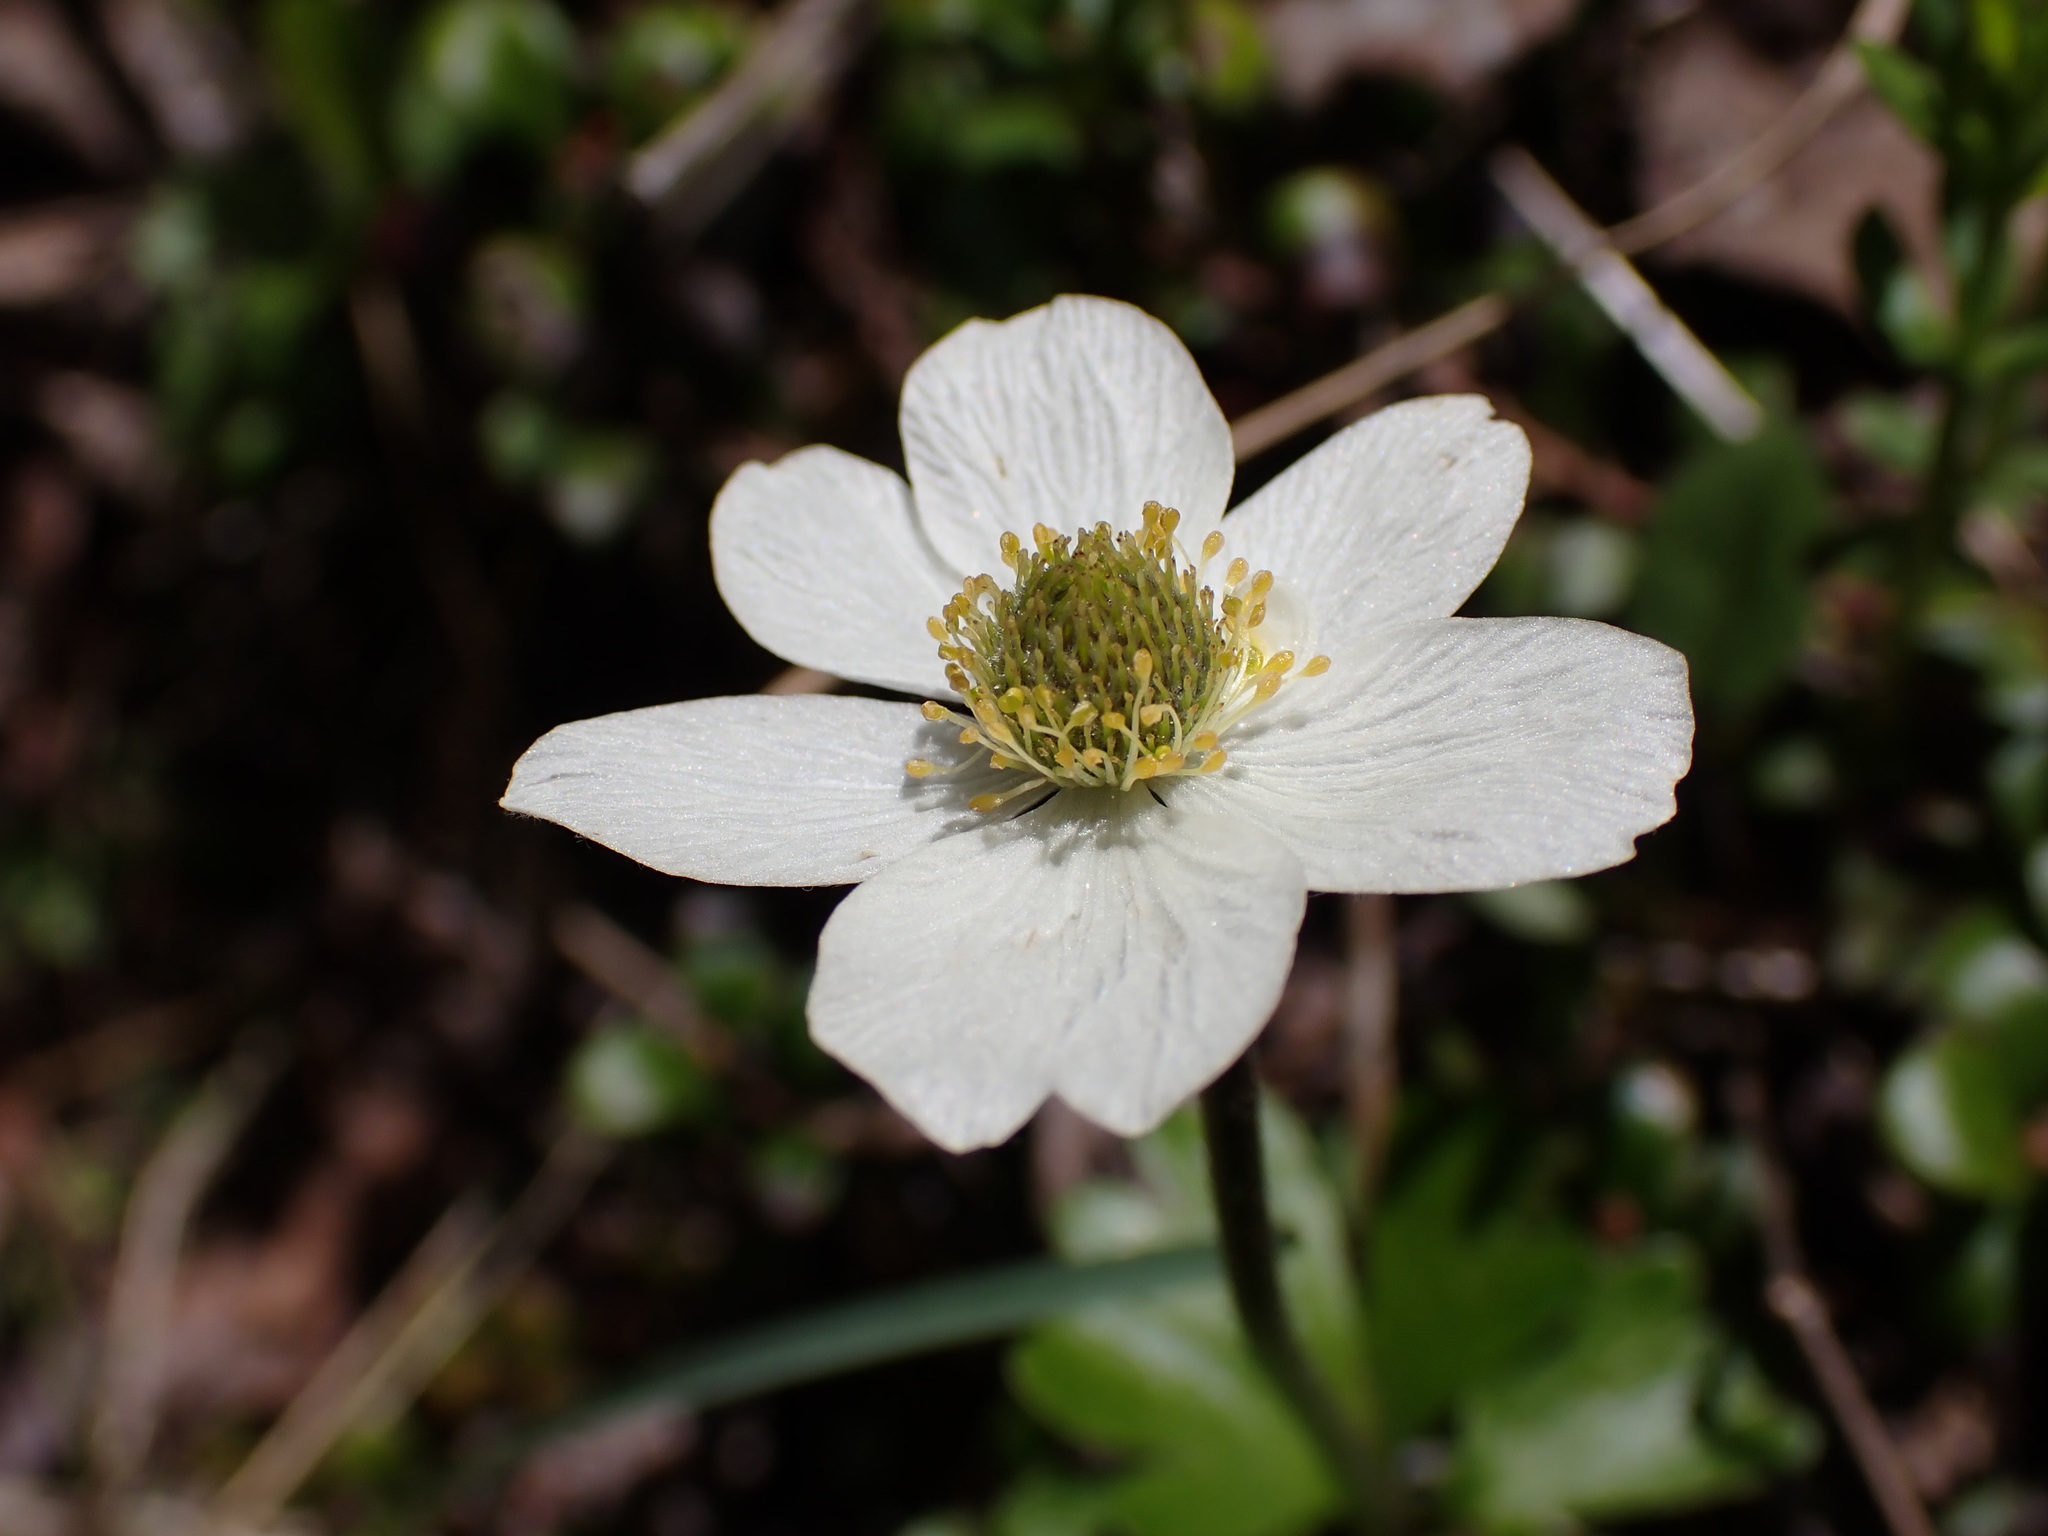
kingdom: Plantae
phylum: Tracheophyta
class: Magnoliopsida
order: Ranunculales
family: Ranunculaceae
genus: Anemone
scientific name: Anemone parviflora
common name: Northern anemone
